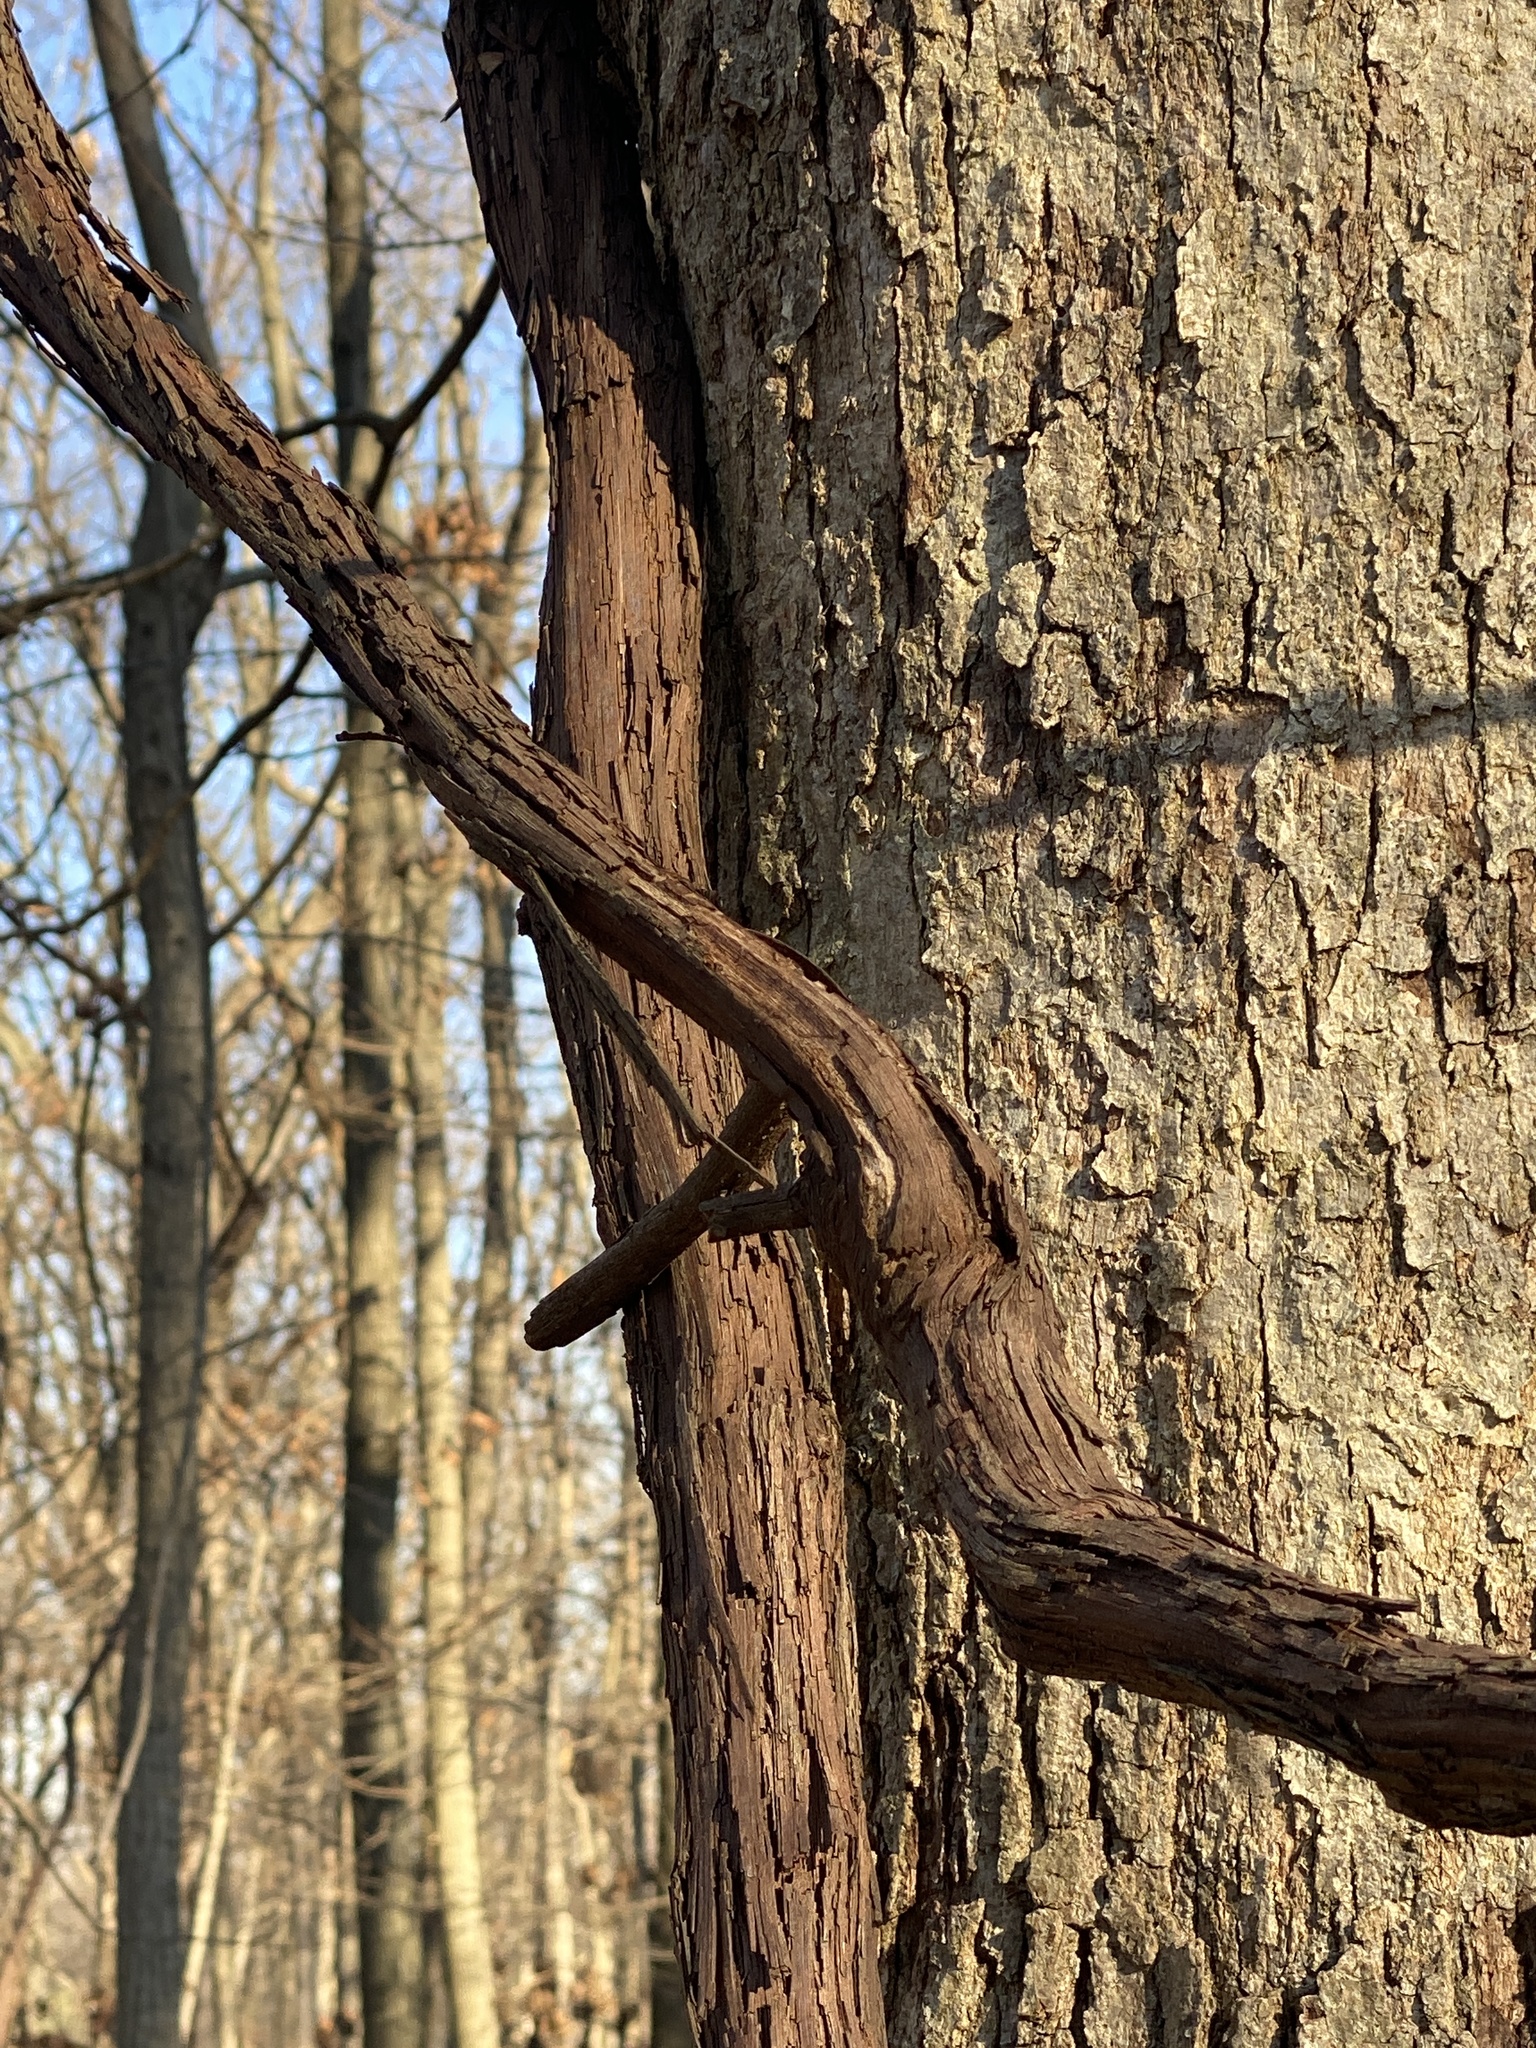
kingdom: Plantae
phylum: Tracheophyta
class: Magnoliopsida
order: Vitales
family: Vitaceae
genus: Vitis
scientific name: Vitis
